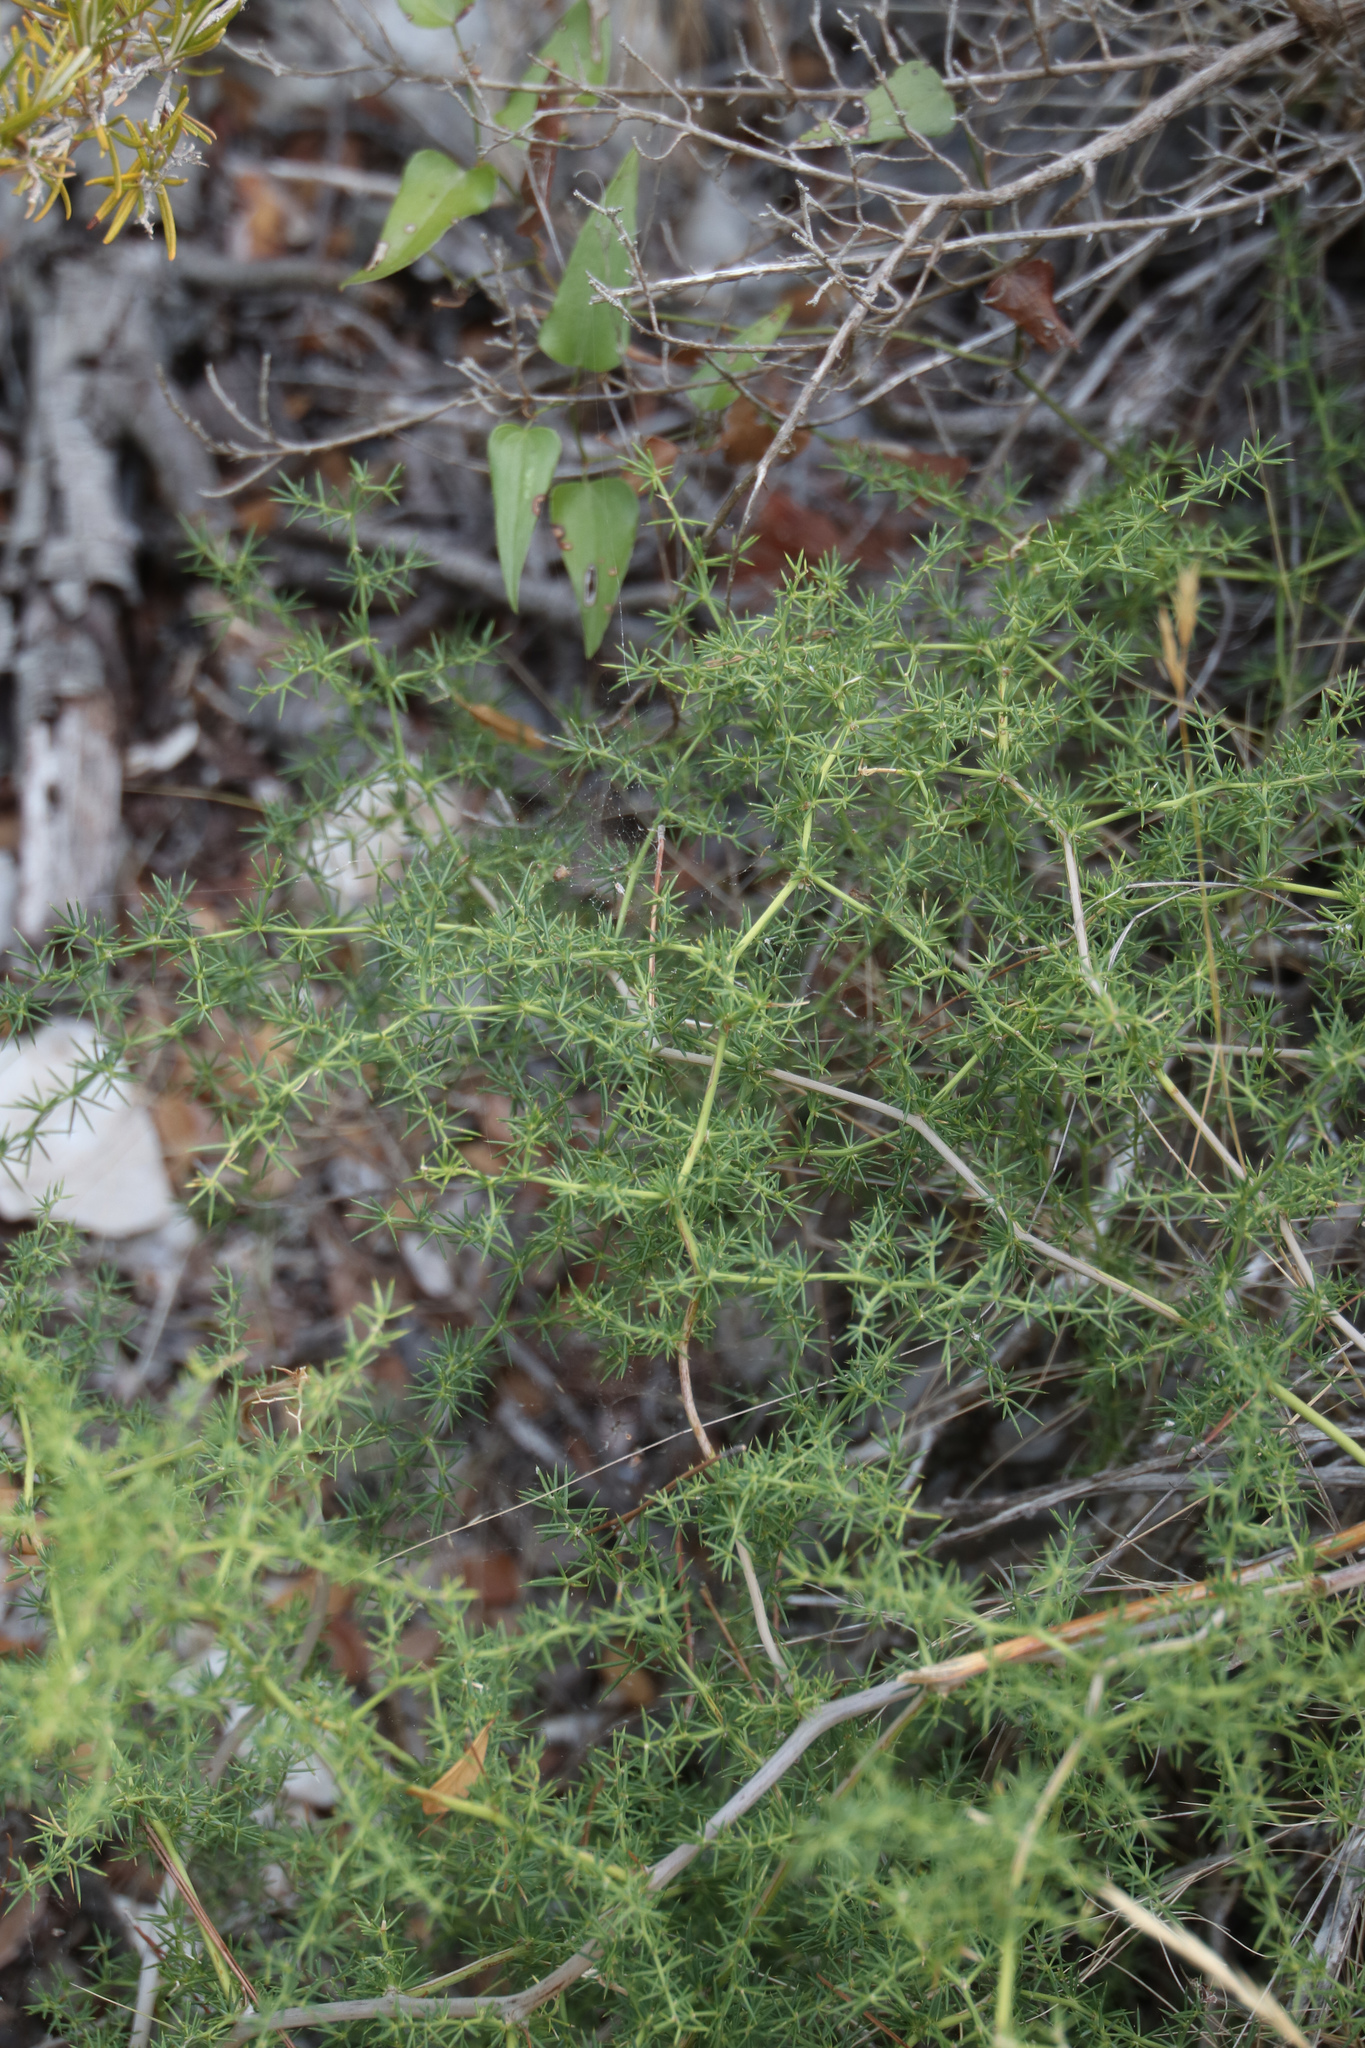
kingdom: Plantae
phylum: Tracheophyta
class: Liliopsida
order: Asparagales
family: Asparagaceae
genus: Asparagus
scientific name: Asparagus acutifolius
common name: Wild asparagus
